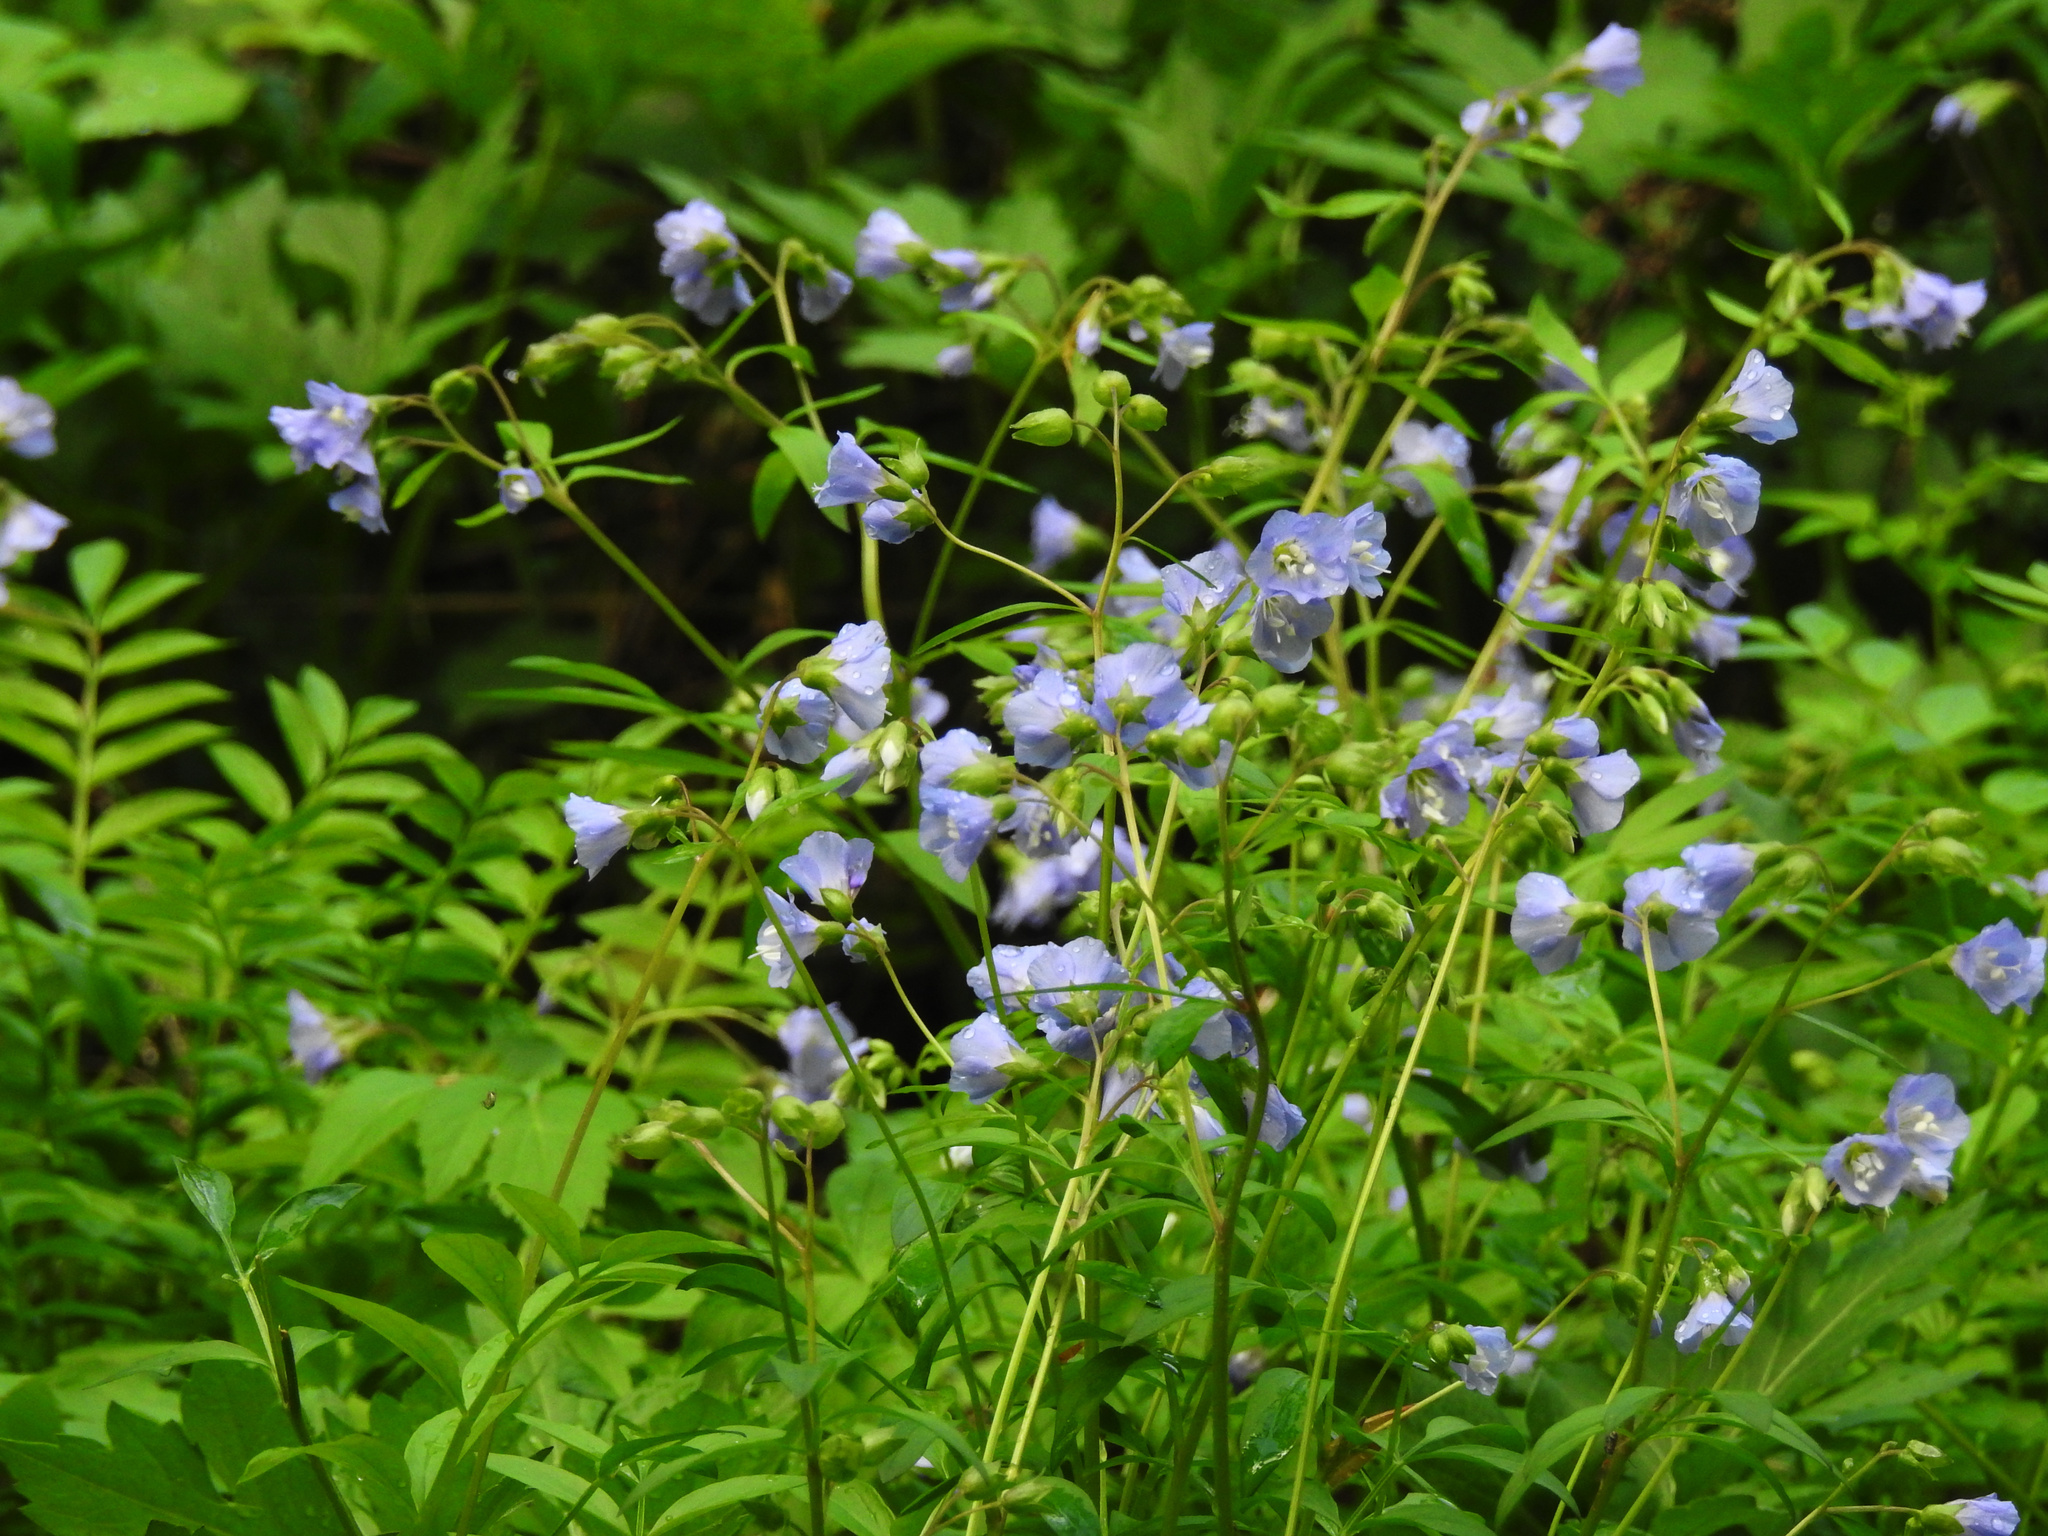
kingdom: Plantae
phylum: Tracheophyta
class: Magnoliopsida
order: Ericales
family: Polemoniaceae
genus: Polemonium
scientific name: Polemonium reptans
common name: Creeping jacob's-ladder
